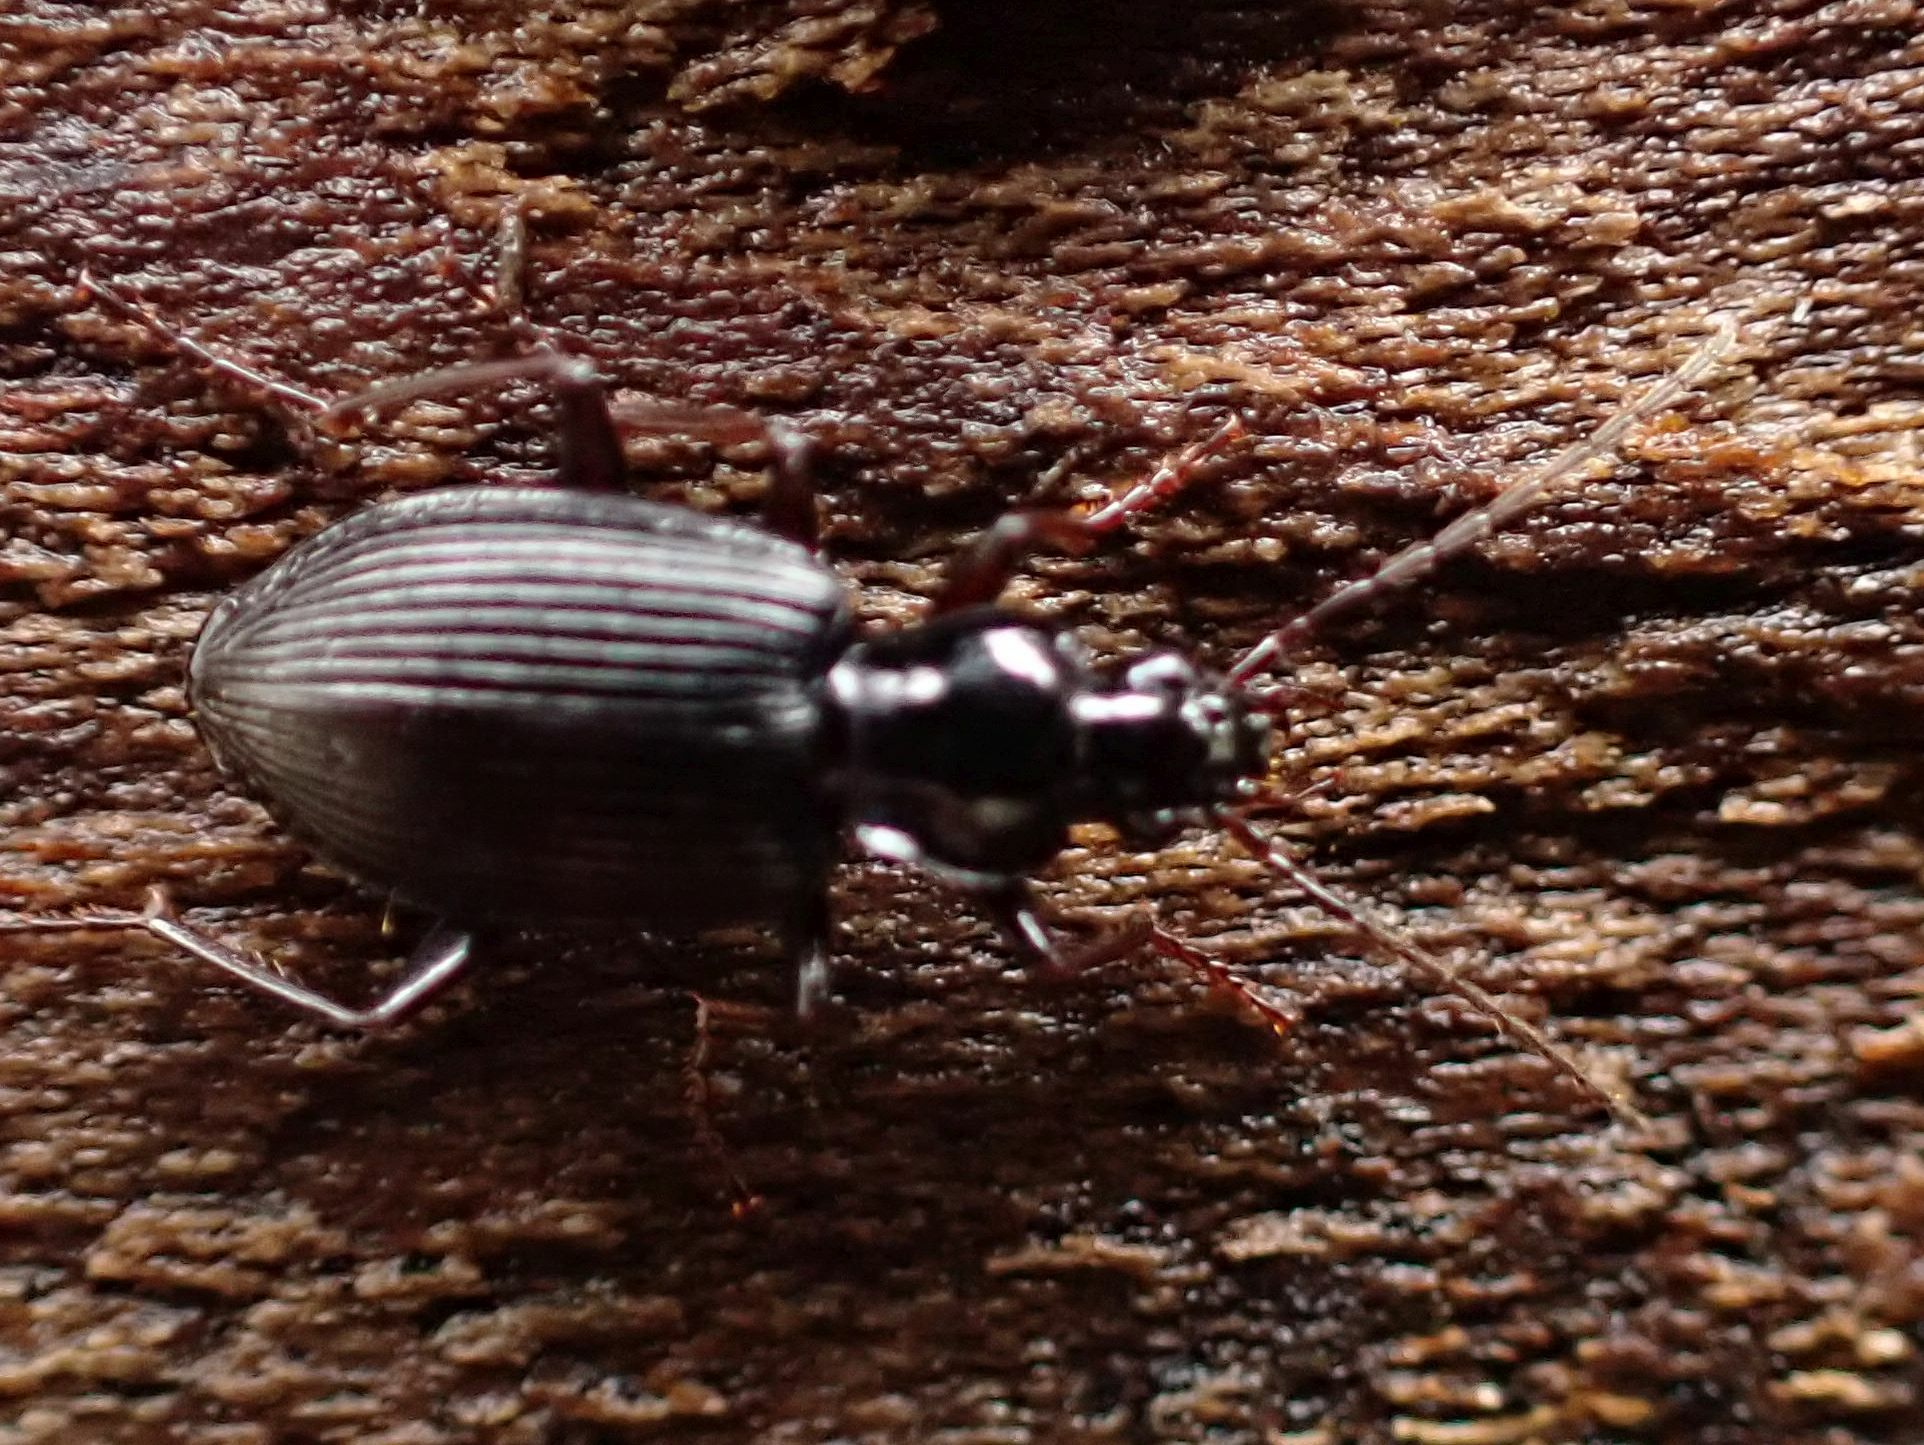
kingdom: Animalia
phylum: Arthropoda
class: Insecta
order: Coleoptera
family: Carabidae
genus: Platynus
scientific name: Platynus assimilis
